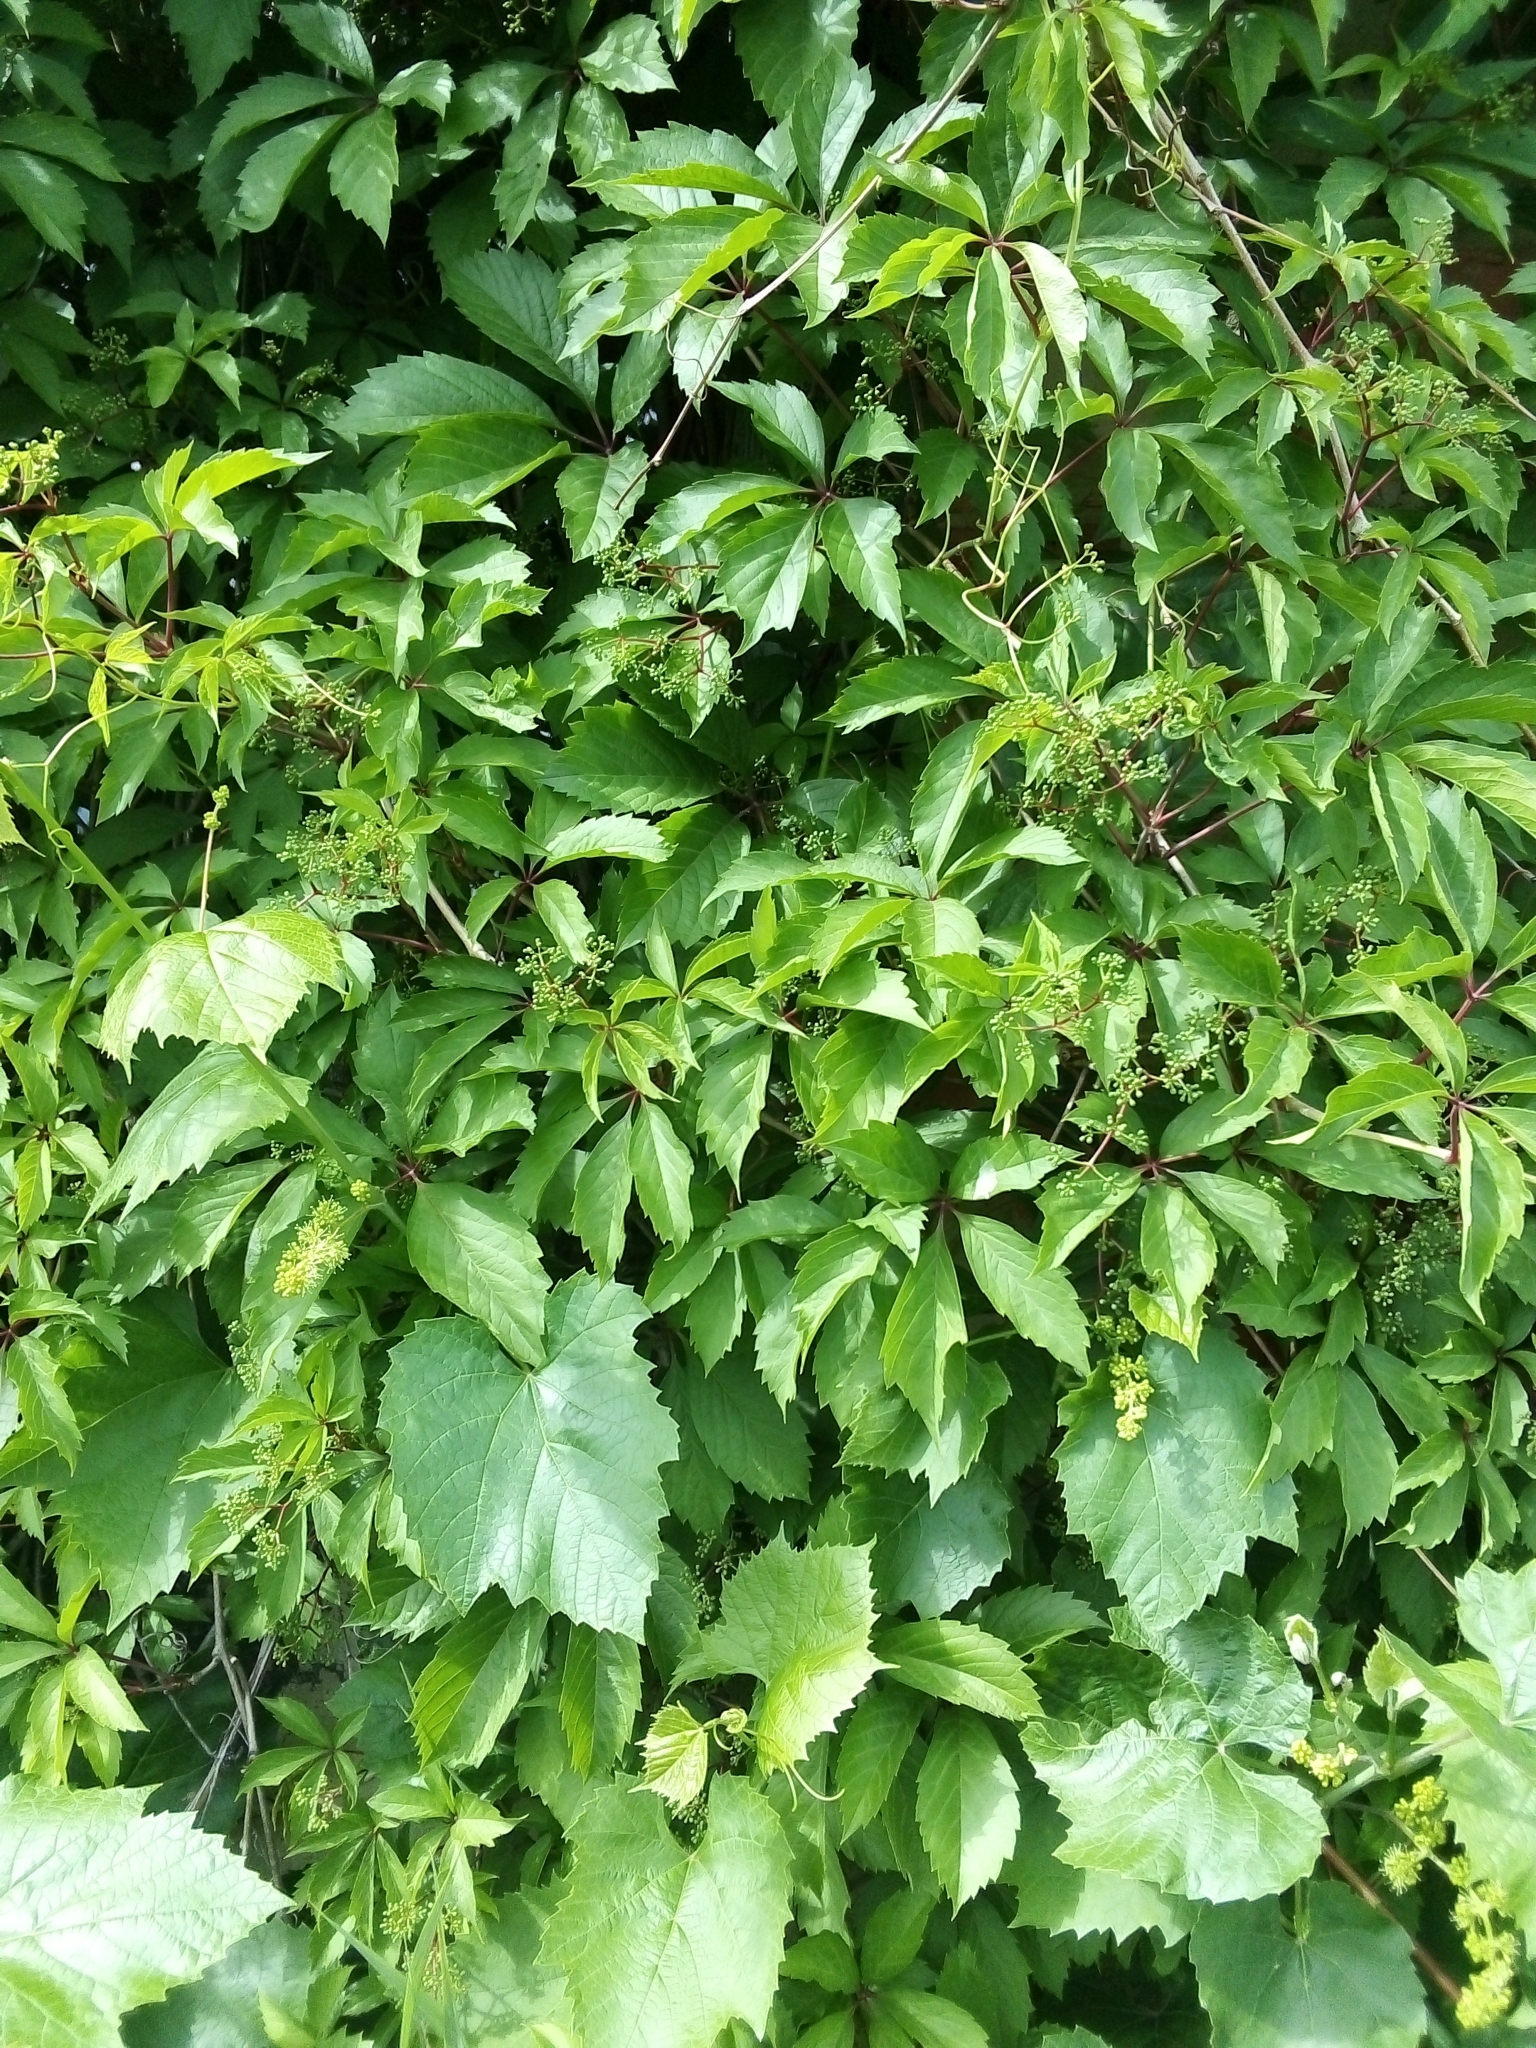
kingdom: Plantae
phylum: Tracheophyta
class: Magnoliopsida
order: Vitales
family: Vitaceae
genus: Parthenocissus
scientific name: Parthenocissus inserta
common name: False virginia-creeper
